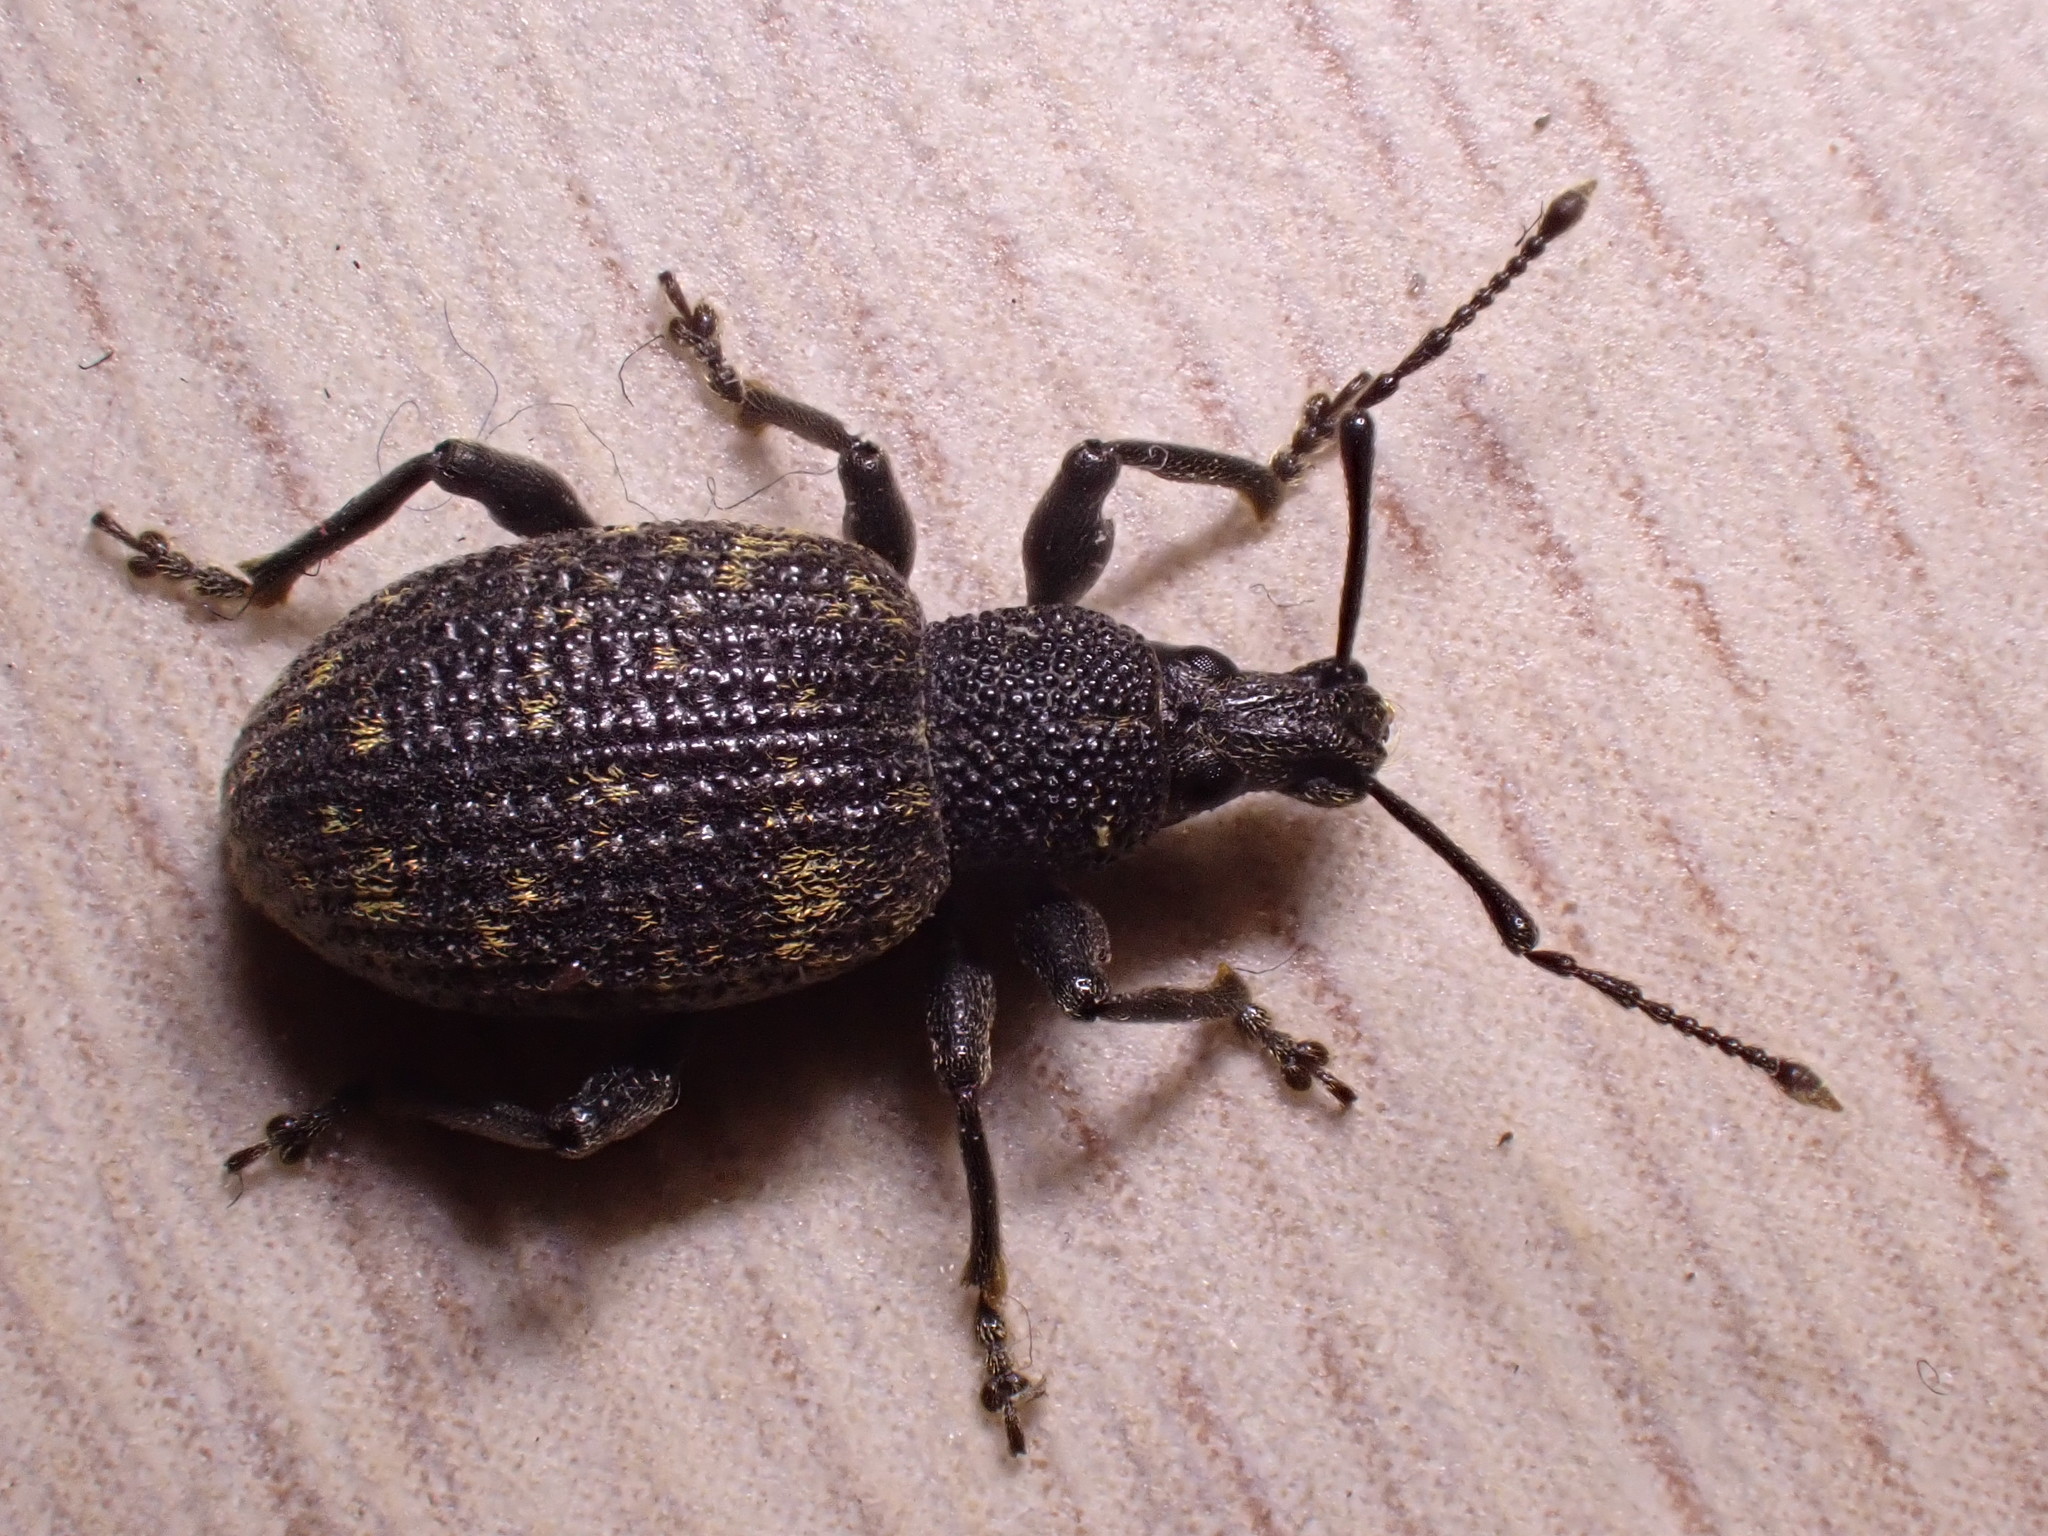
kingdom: Animalia
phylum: Arthropoda
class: Insecta
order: Coleoptera
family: Curculionidae
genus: Otiorhynchus
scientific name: Otiorhynchus sulcatus
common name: Black vine weevil
